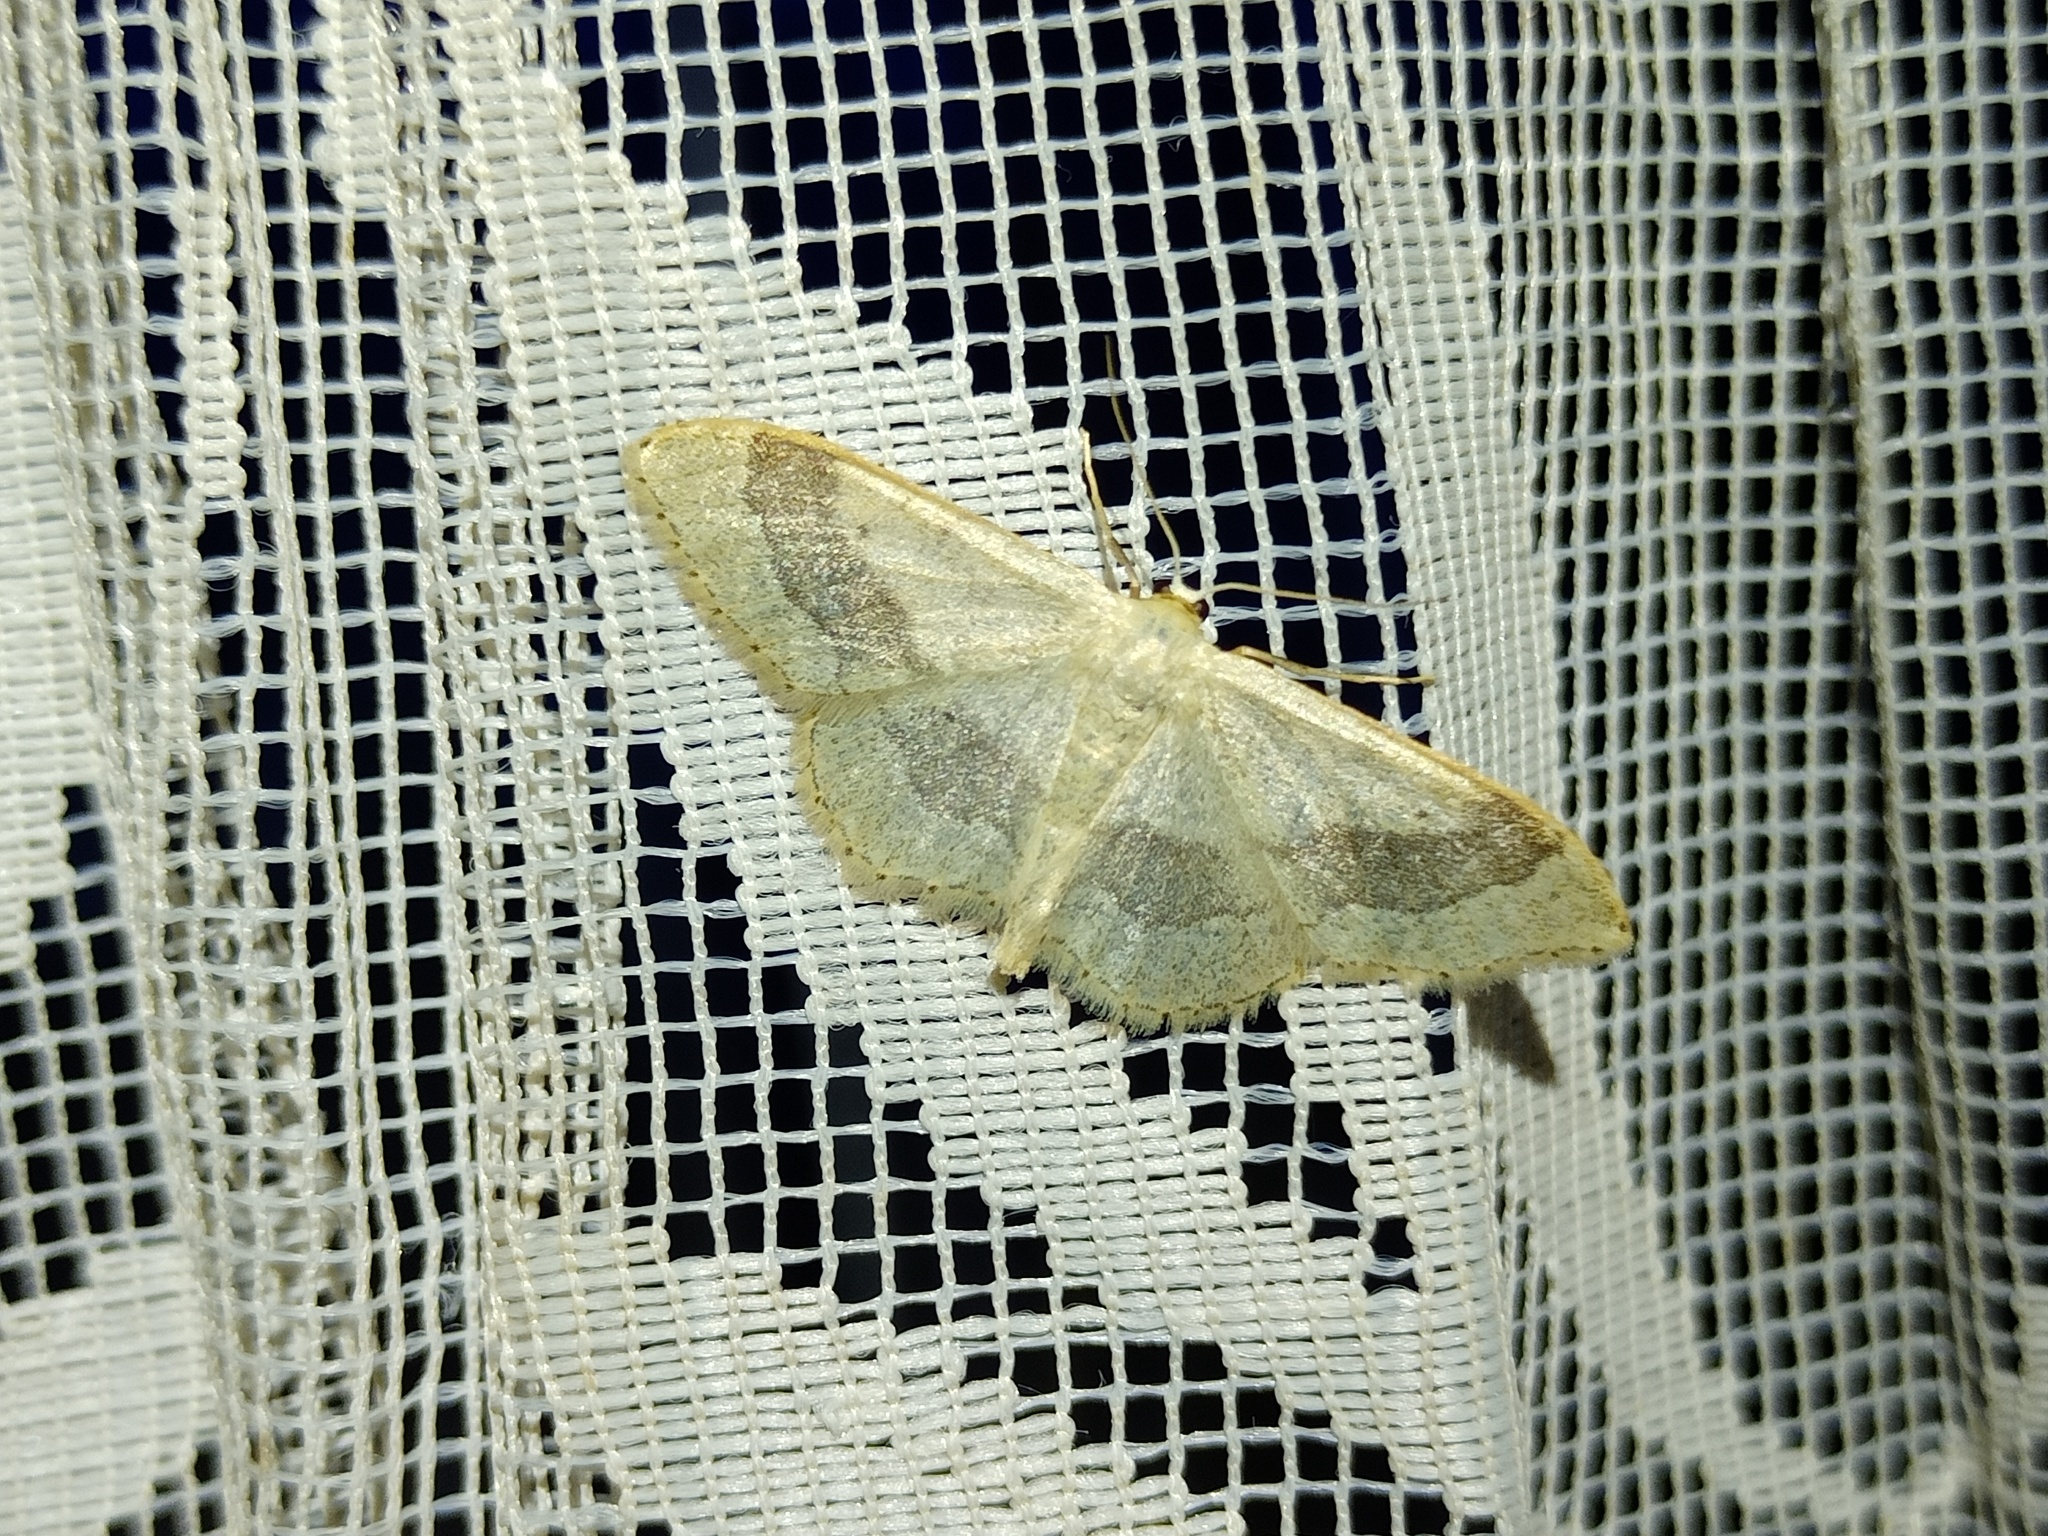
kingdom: Animalia
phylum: Arthropoda
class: Insecta
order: Lepidoptera
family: Geometridae
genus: Idaea
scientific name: Idaea aversata
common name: Riband wave
